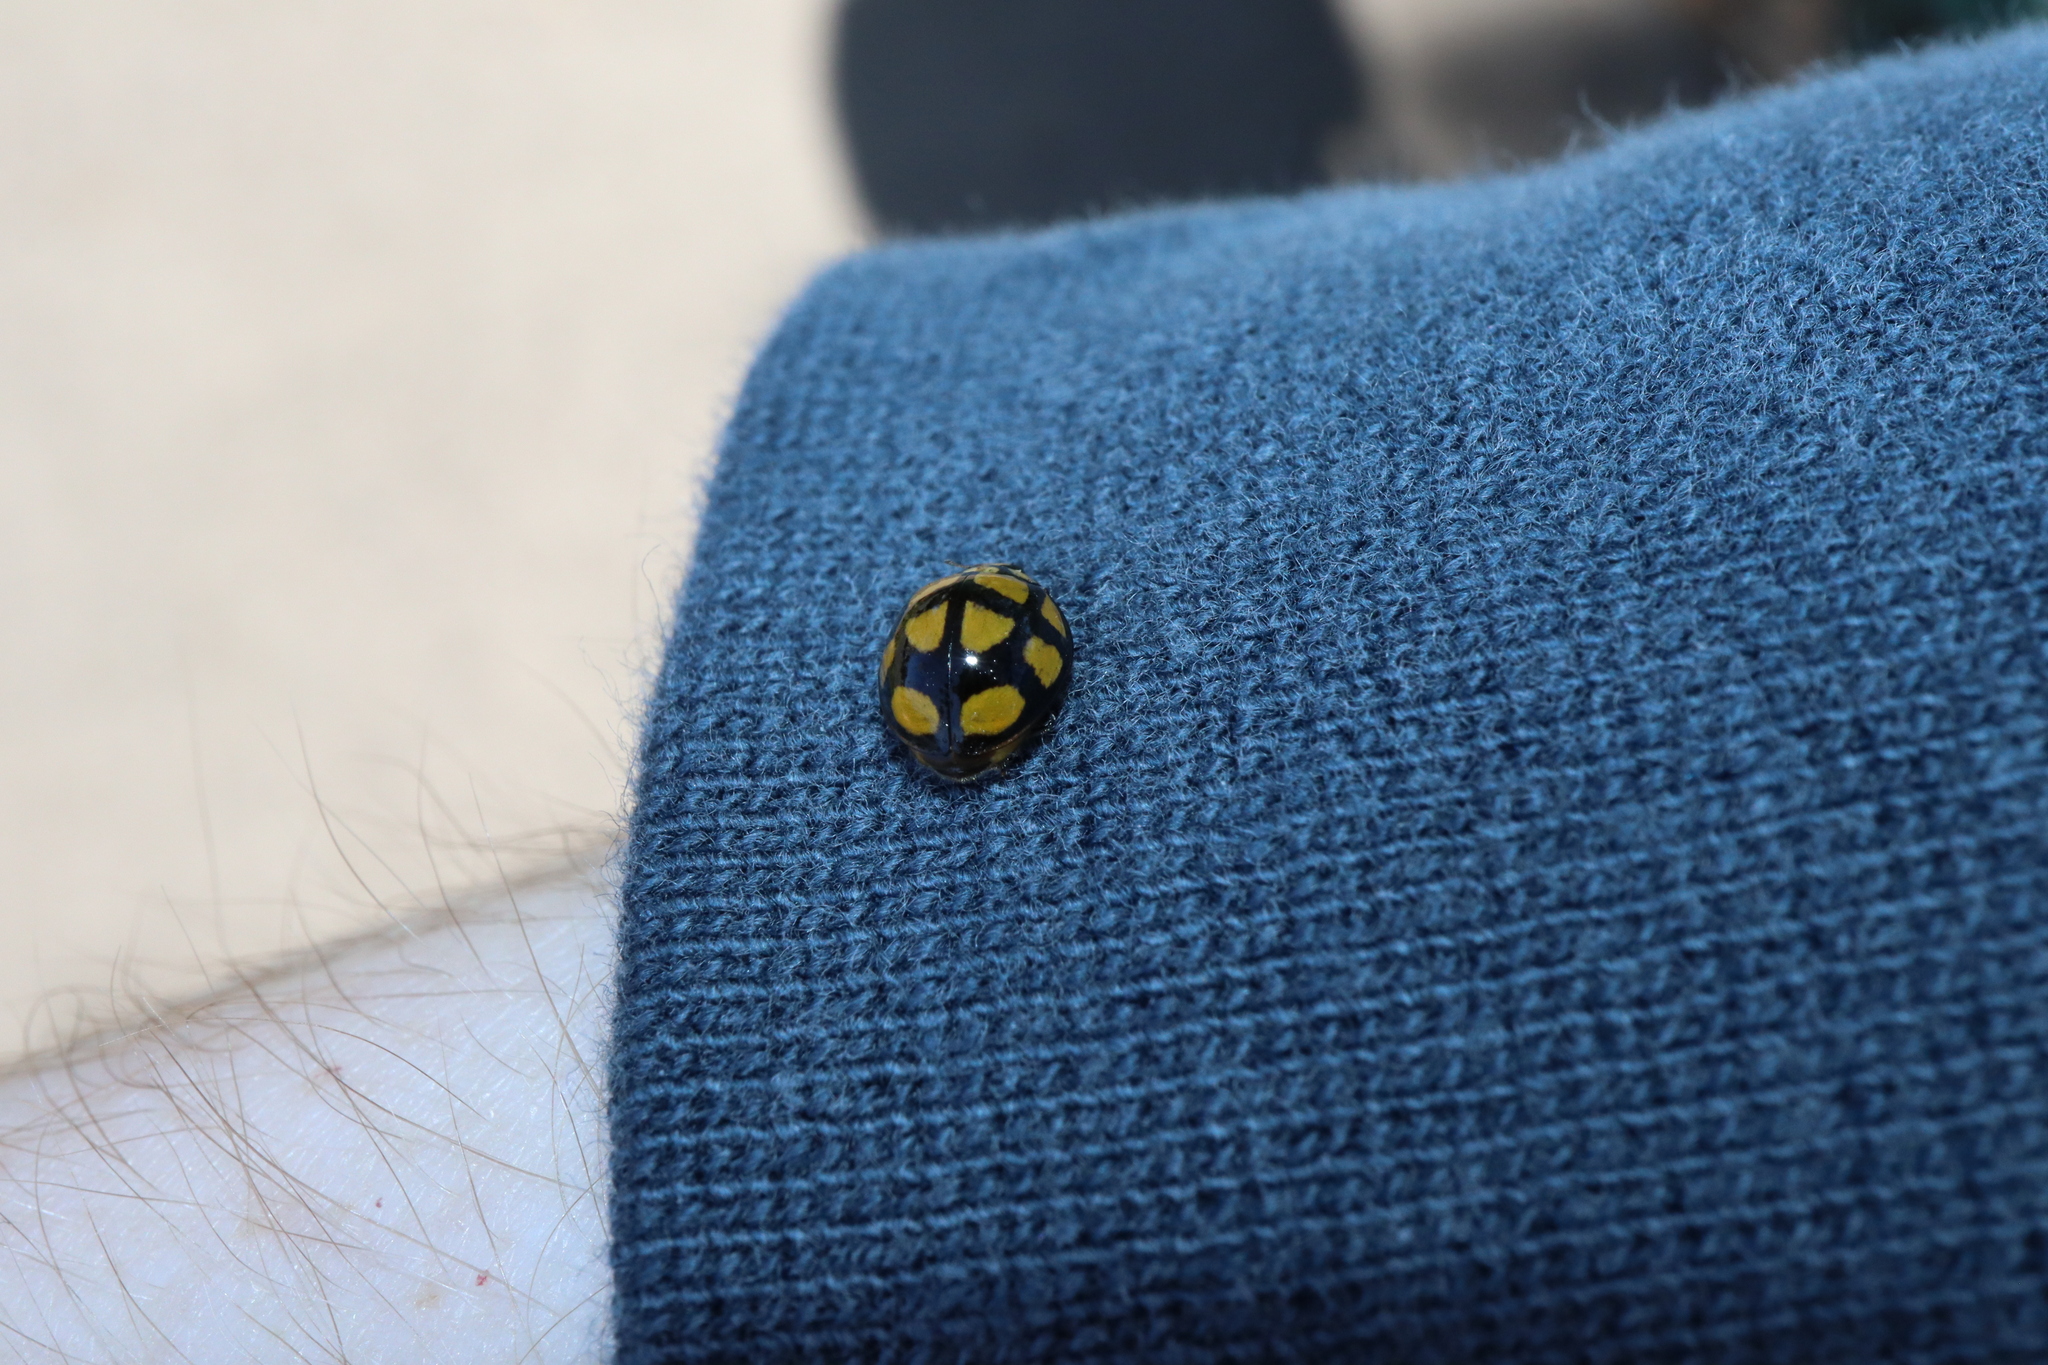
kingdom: Animalia
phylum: Arthropoda
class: Insecta
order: Coleoptera
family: Coccinellidae
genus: Harmonia
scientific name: Harmonia
